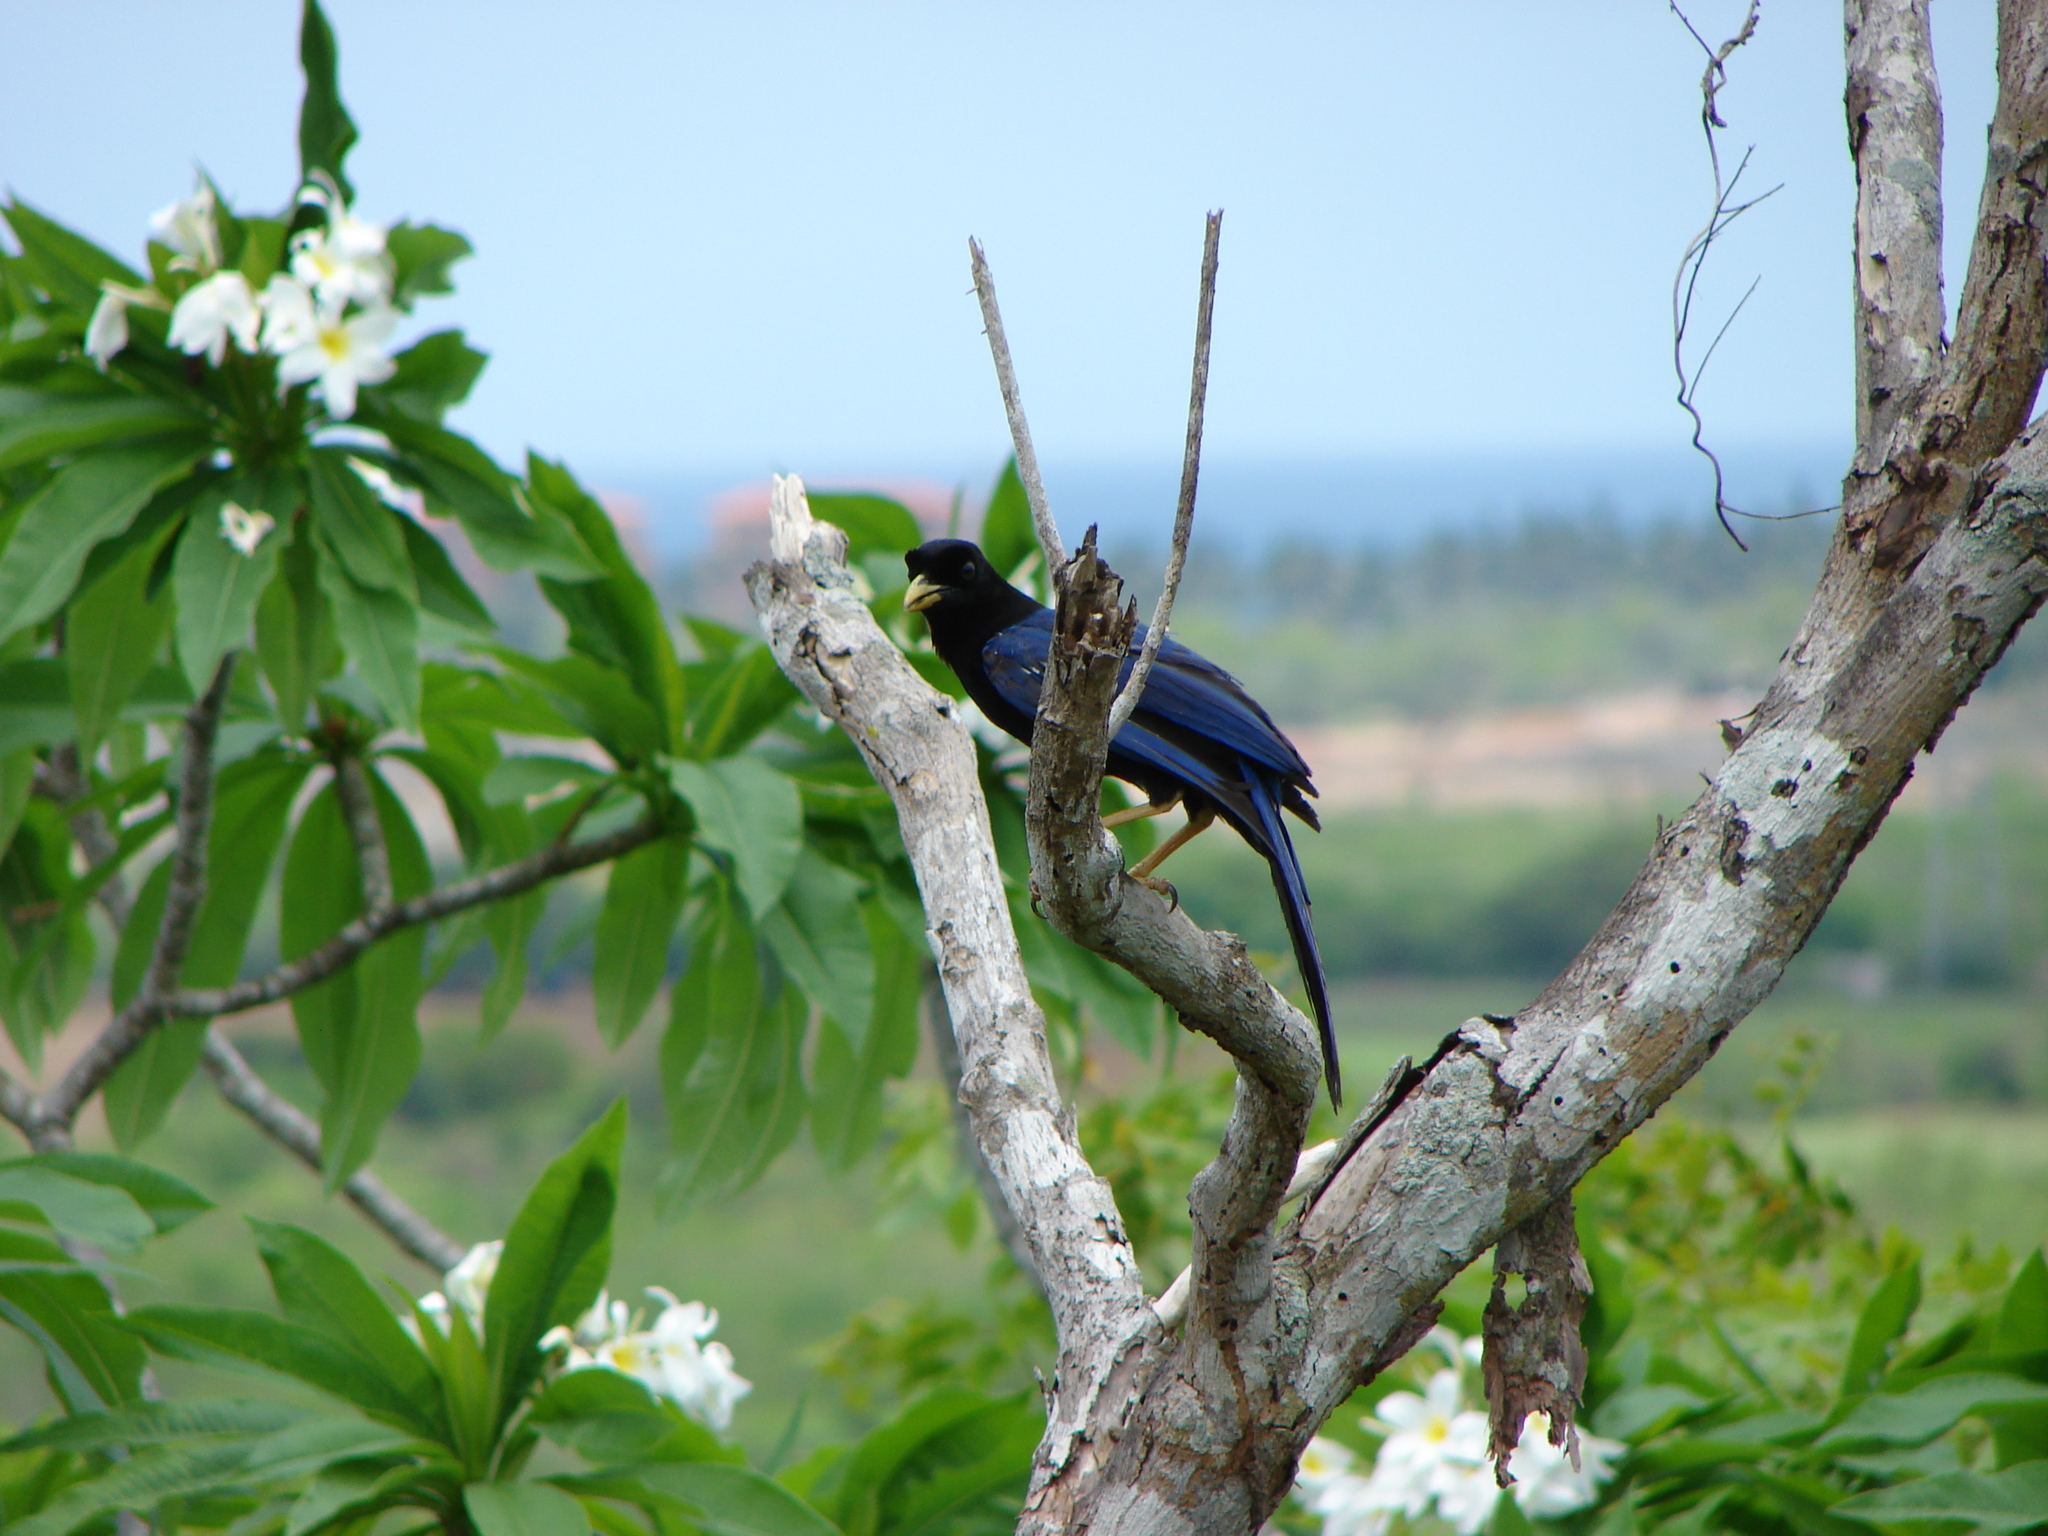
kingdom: Animalia
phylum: Chordata
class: Aves
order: Passeriformes
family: Corvidae
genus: Cyanocorax
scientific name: Cyanocorax beecheii
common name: Purplish-backed jay
